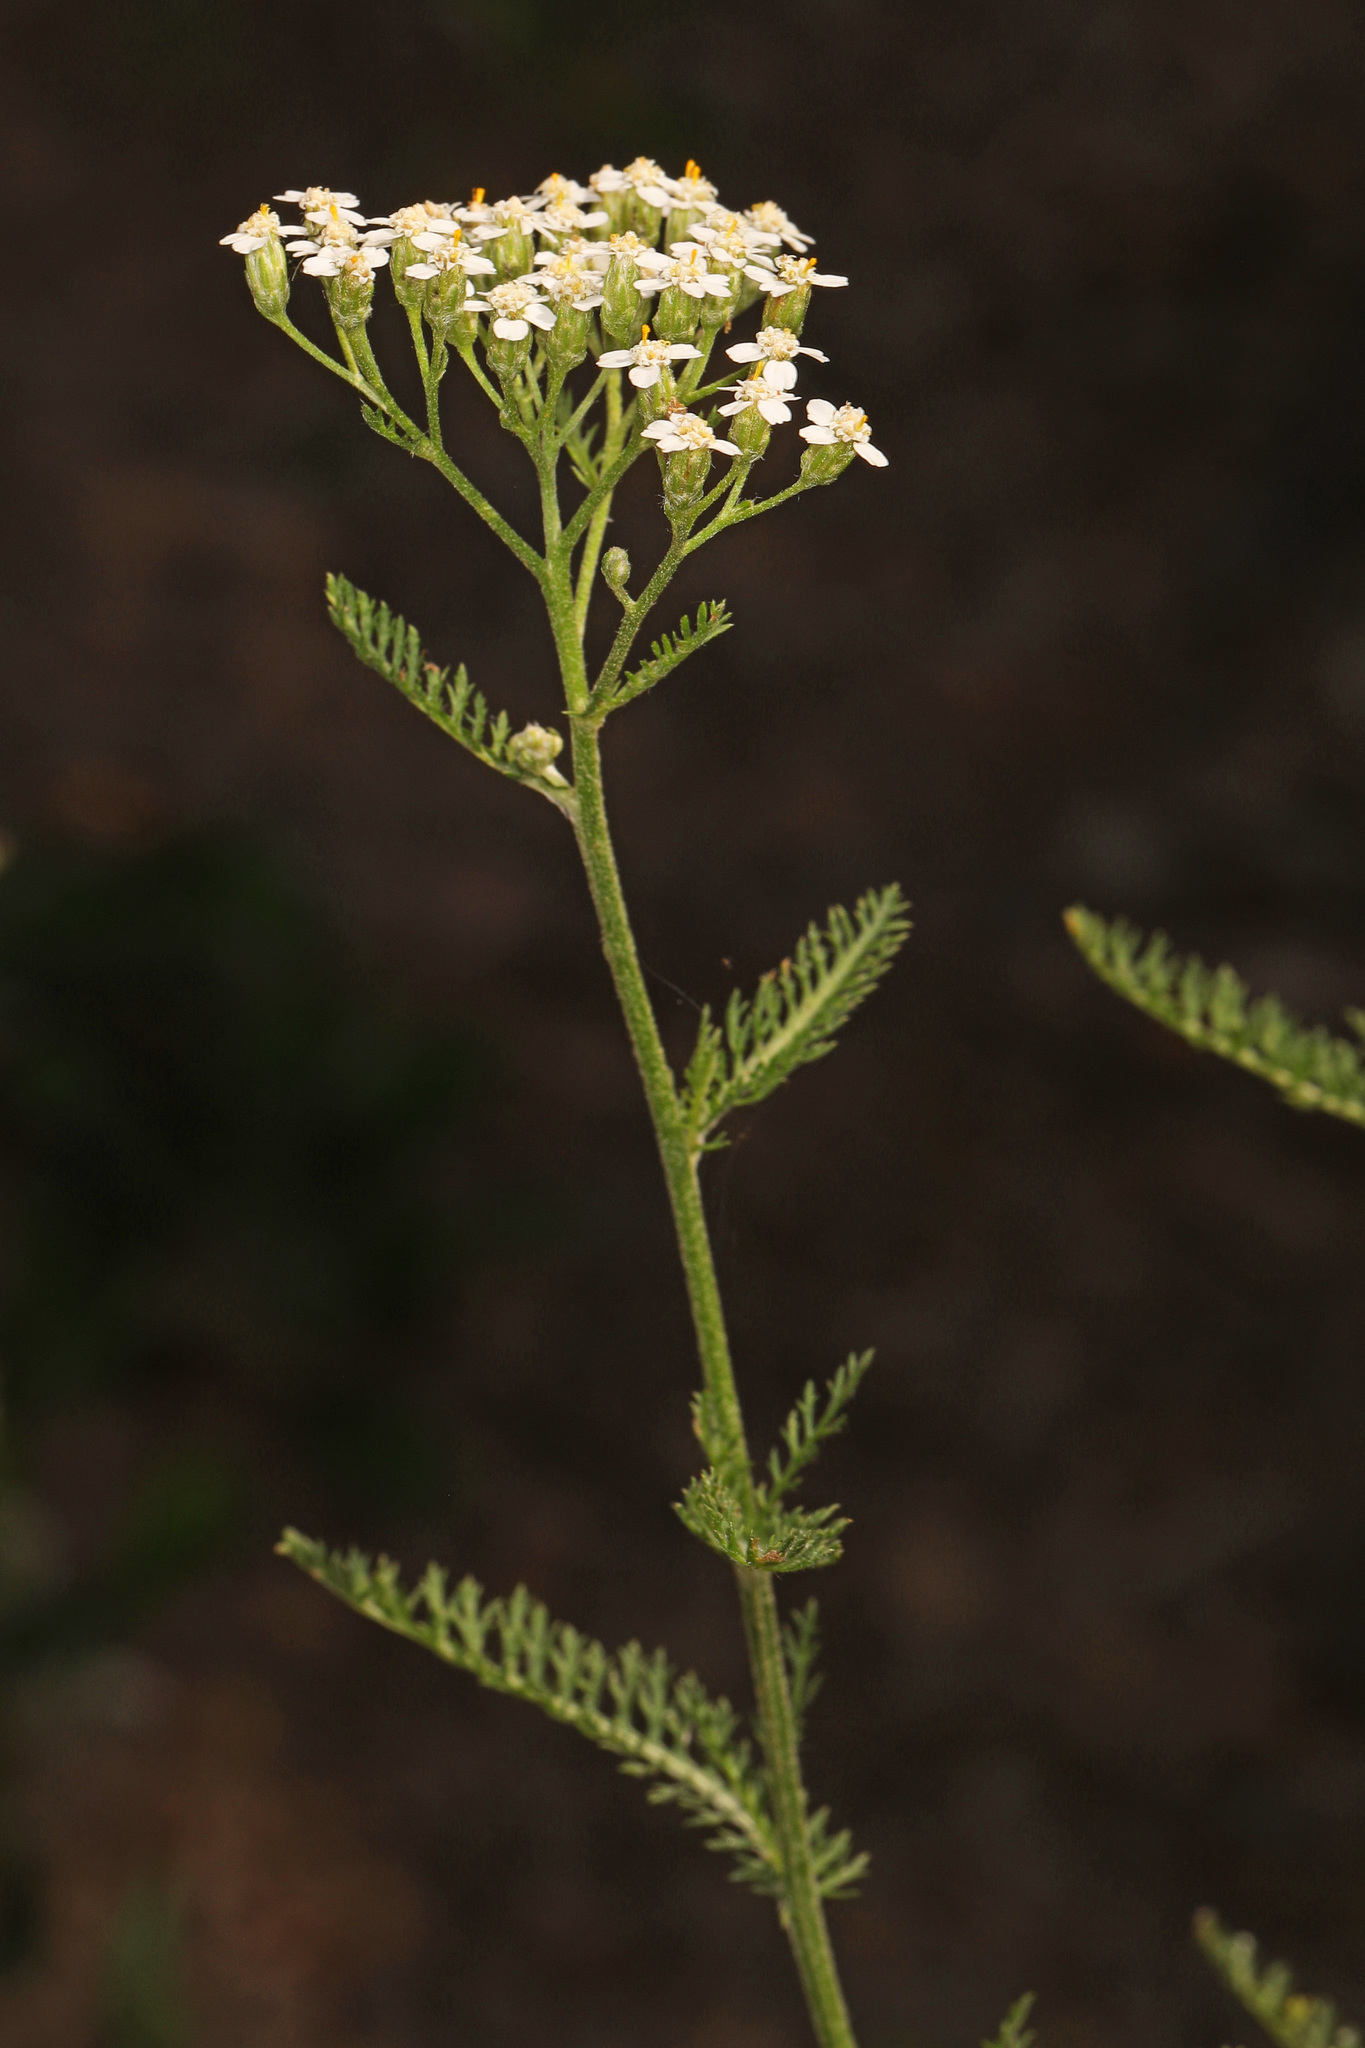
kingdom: Plantae
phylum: Tracheophyta
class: Magnoliopsida
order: Asterales
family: Asteraceae
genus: Achillea
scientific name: Achillea millefolium
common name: Yarrow
